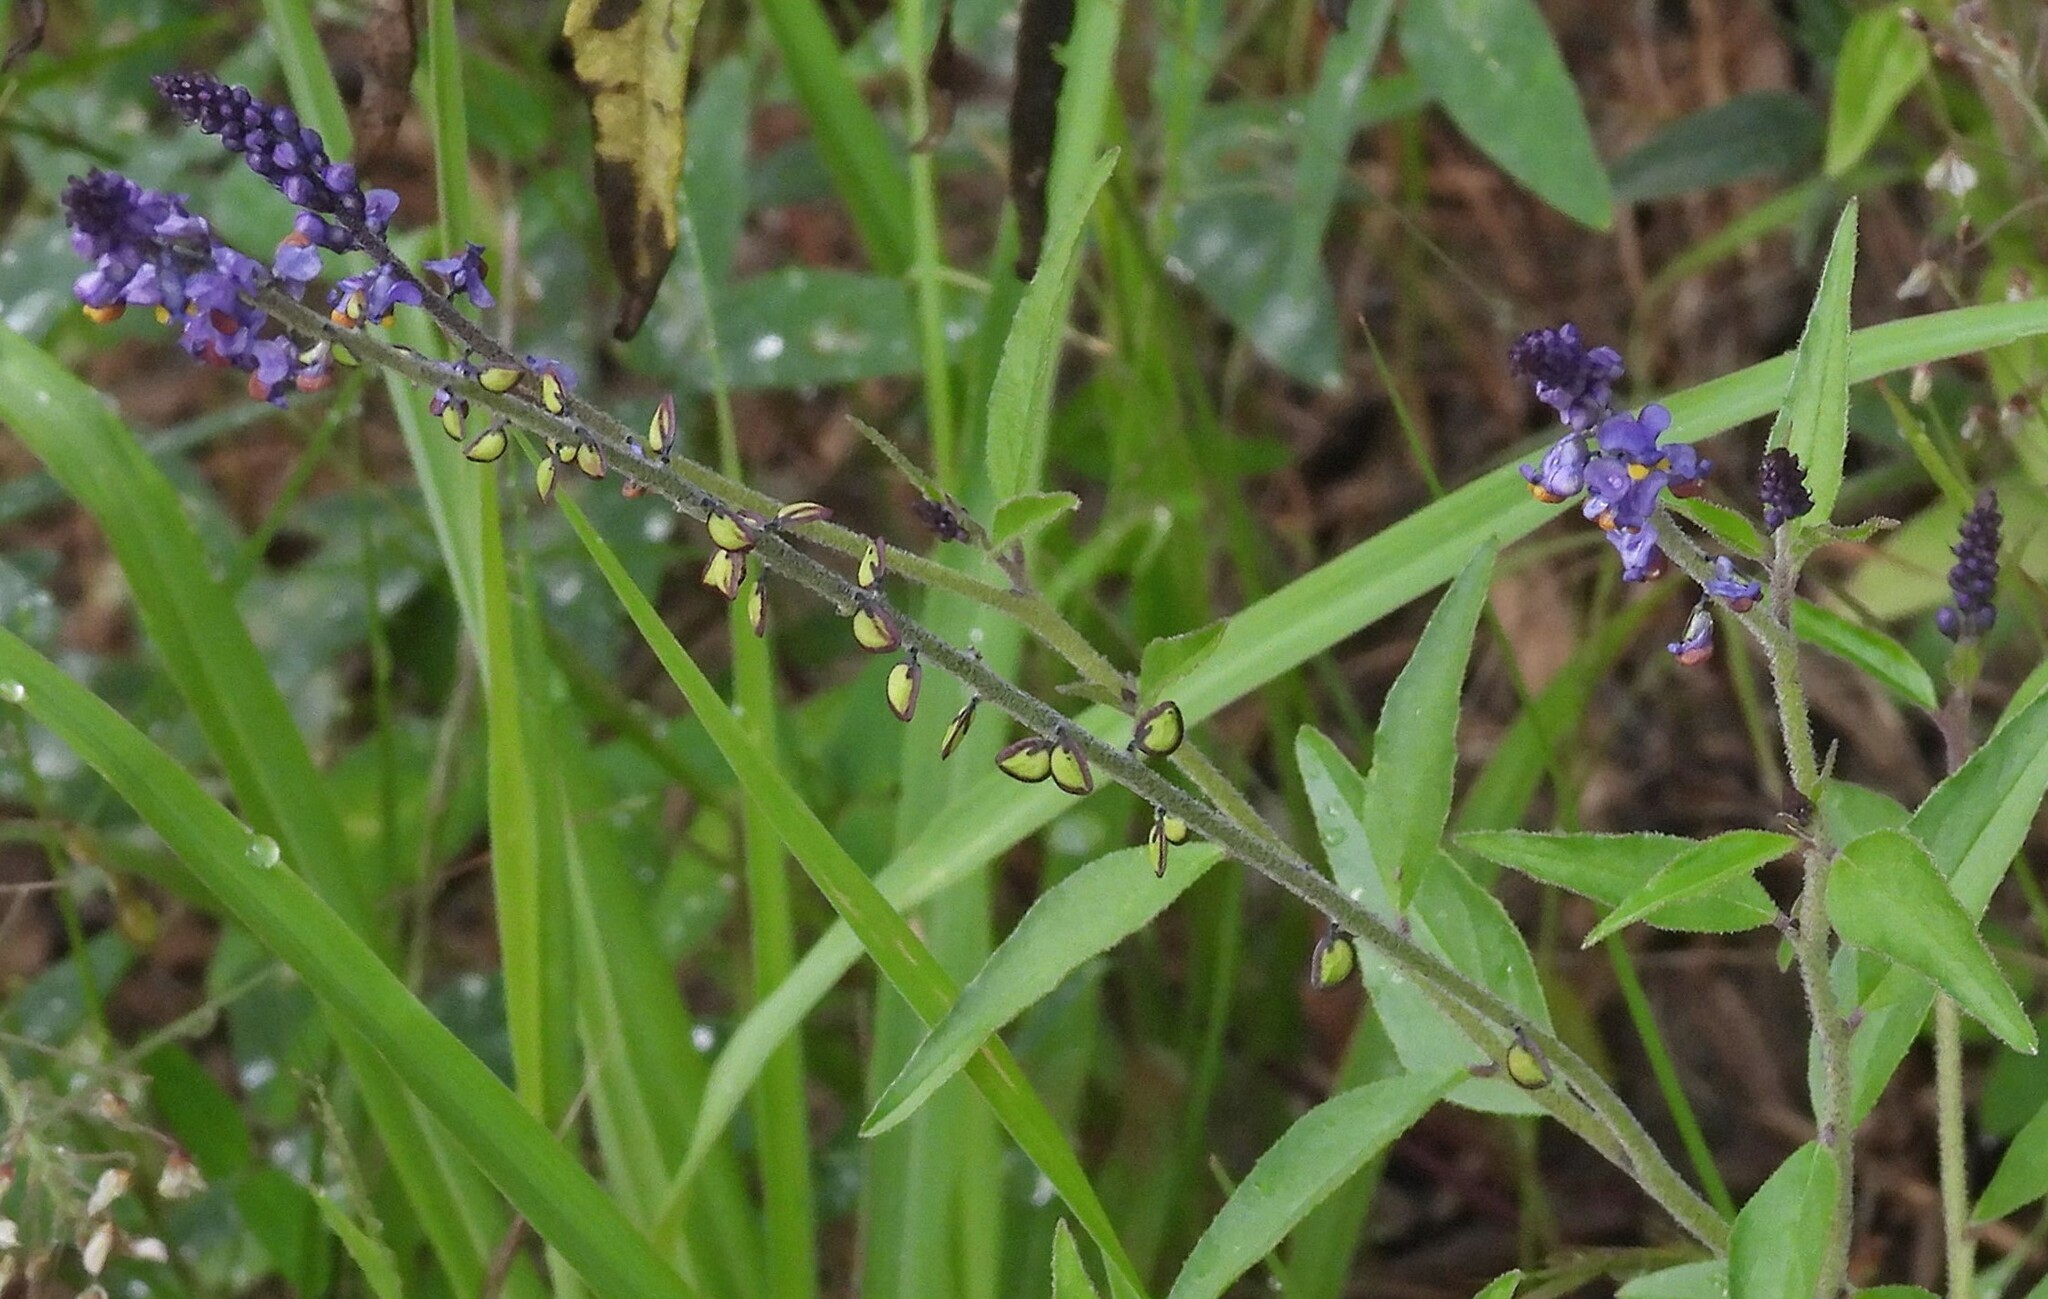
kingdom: Plantae
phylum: Tracheophyta
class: Magnoliopsida
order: Fabales
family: Polygalaceae
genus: Monnina
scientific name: Monnina wrightii
